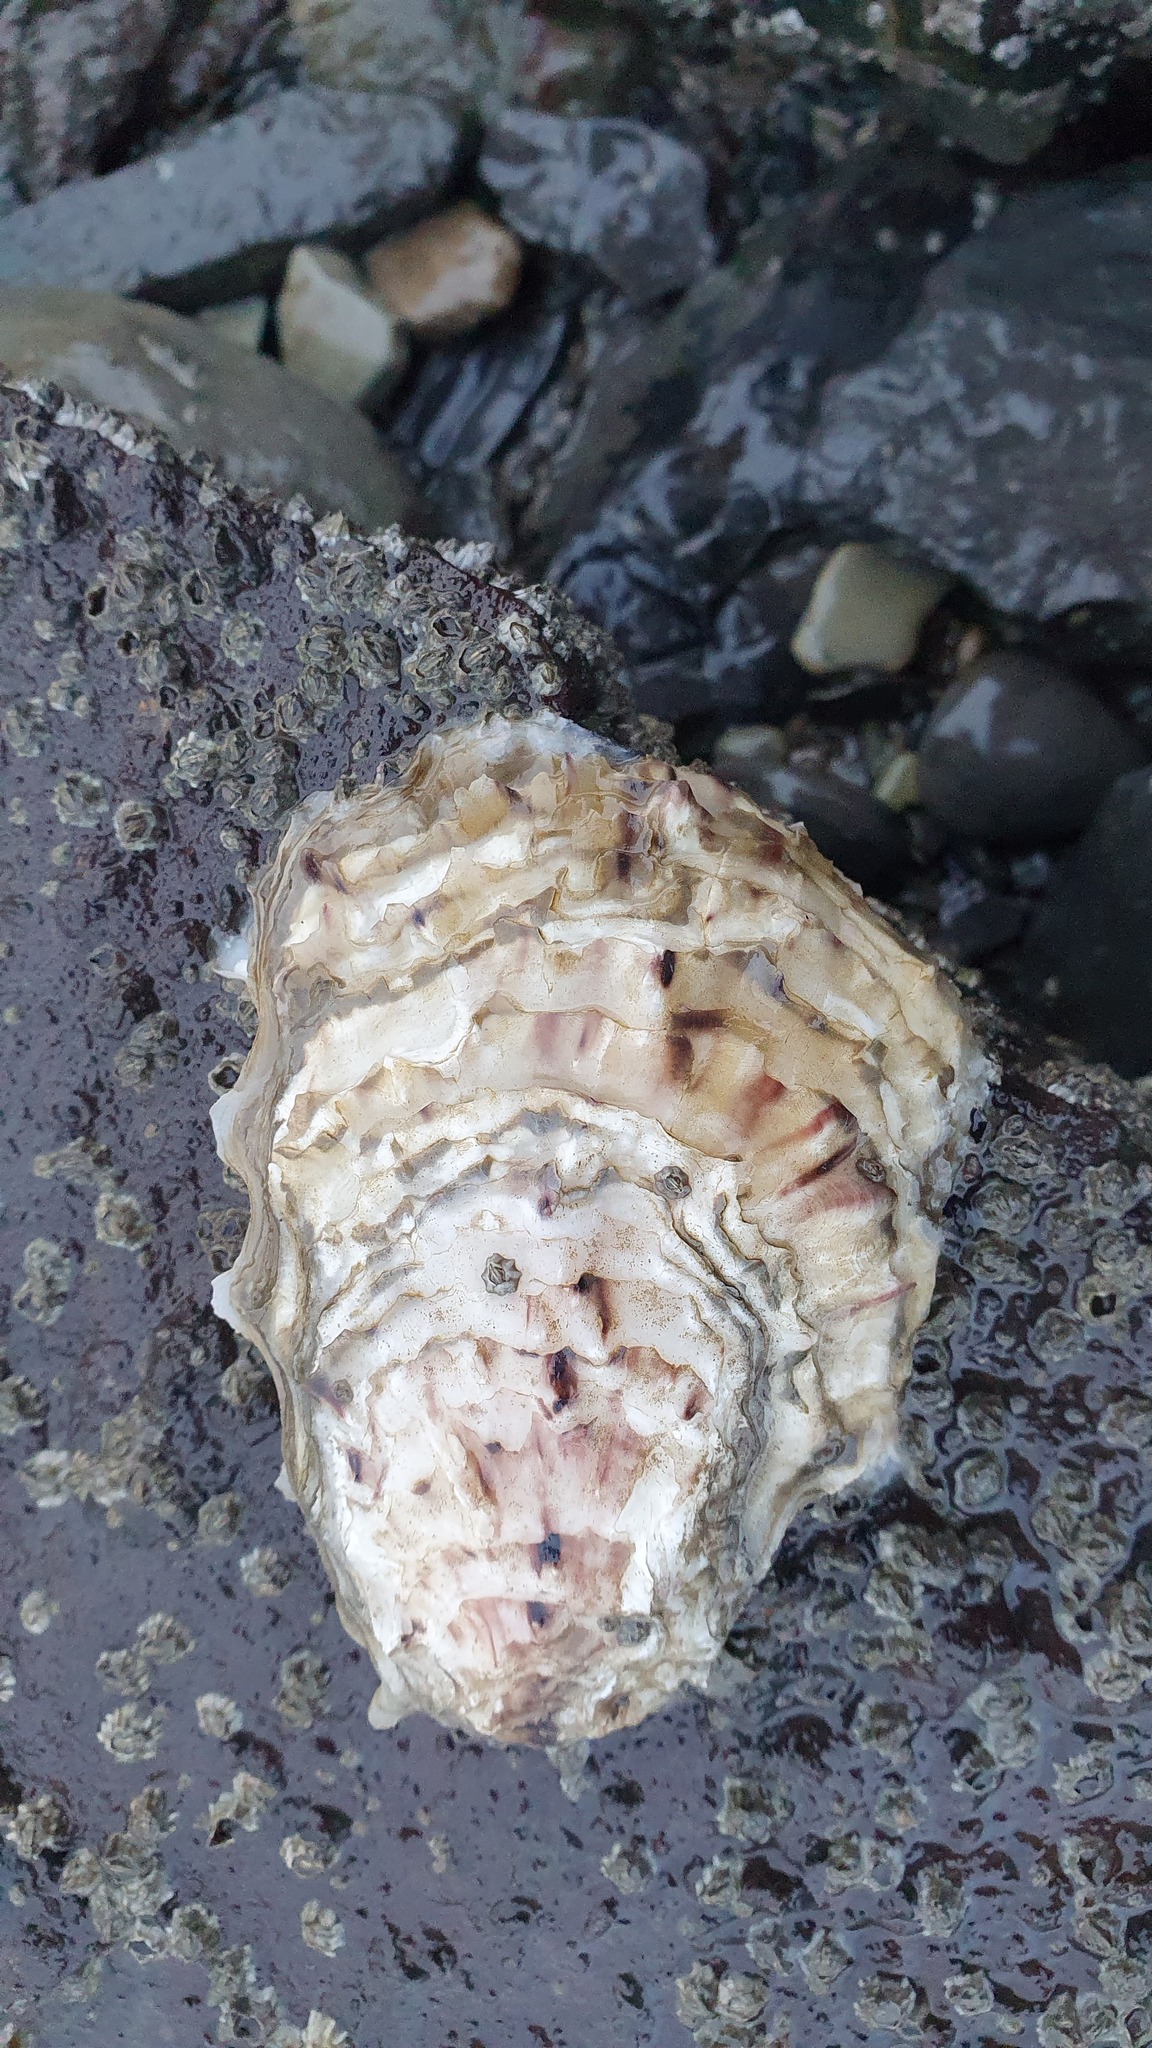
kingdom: Animalia
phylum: Mollusca
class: Bivalvia
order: Ostreida
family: Ostreidae
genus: Magallana
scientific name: Magallana gigas
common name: Pacific oyster
